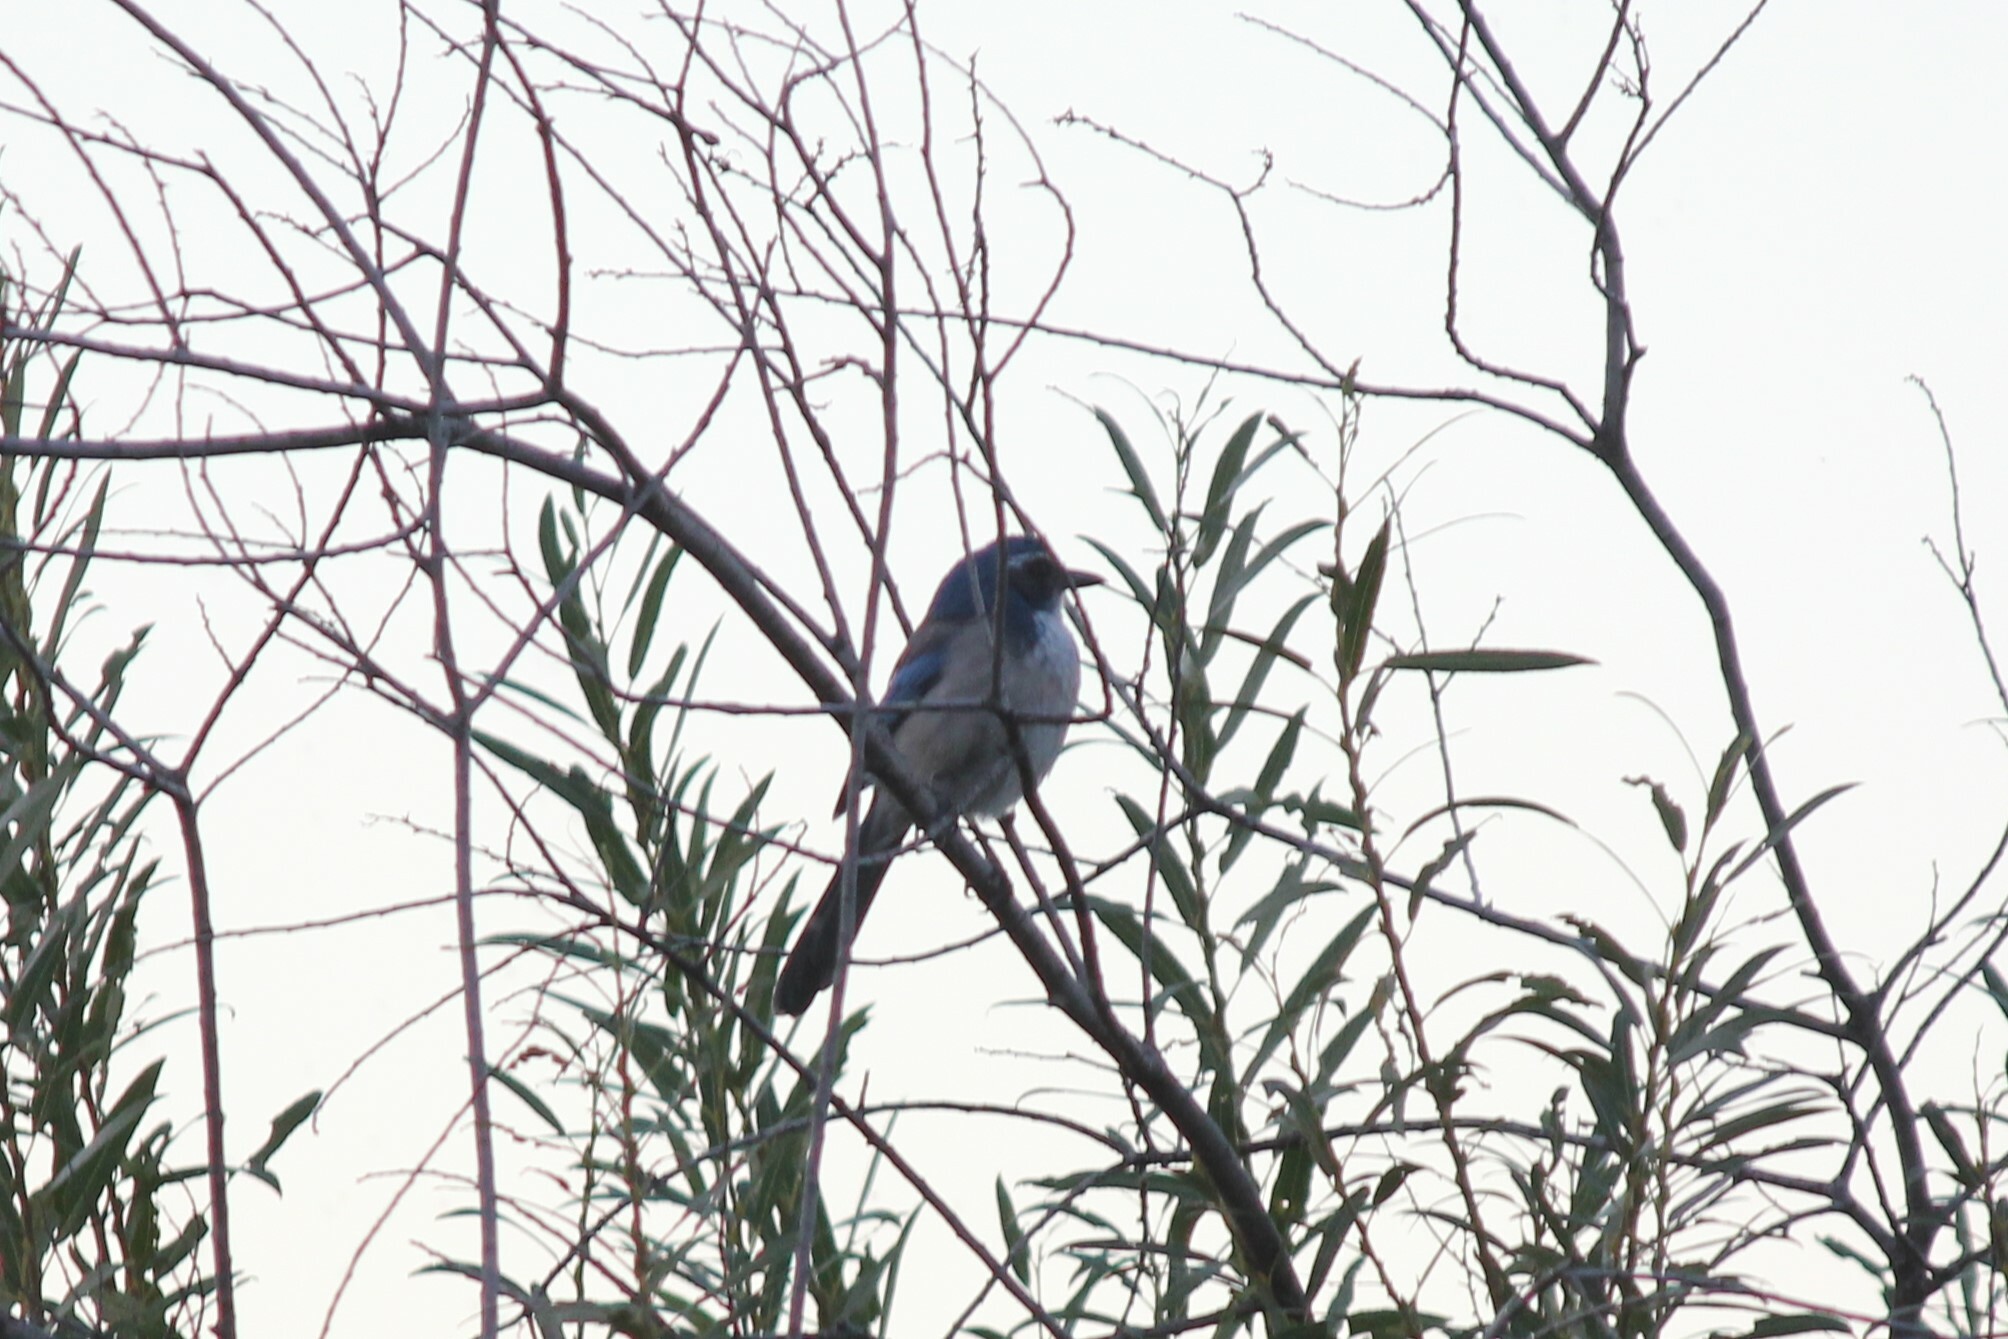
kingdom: Animalia
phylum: Chordata
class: Aves
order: Passeriformes
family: Corvidae
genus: Aphelocoma
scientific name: Aphelocoma californica
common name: California scrub-jay
